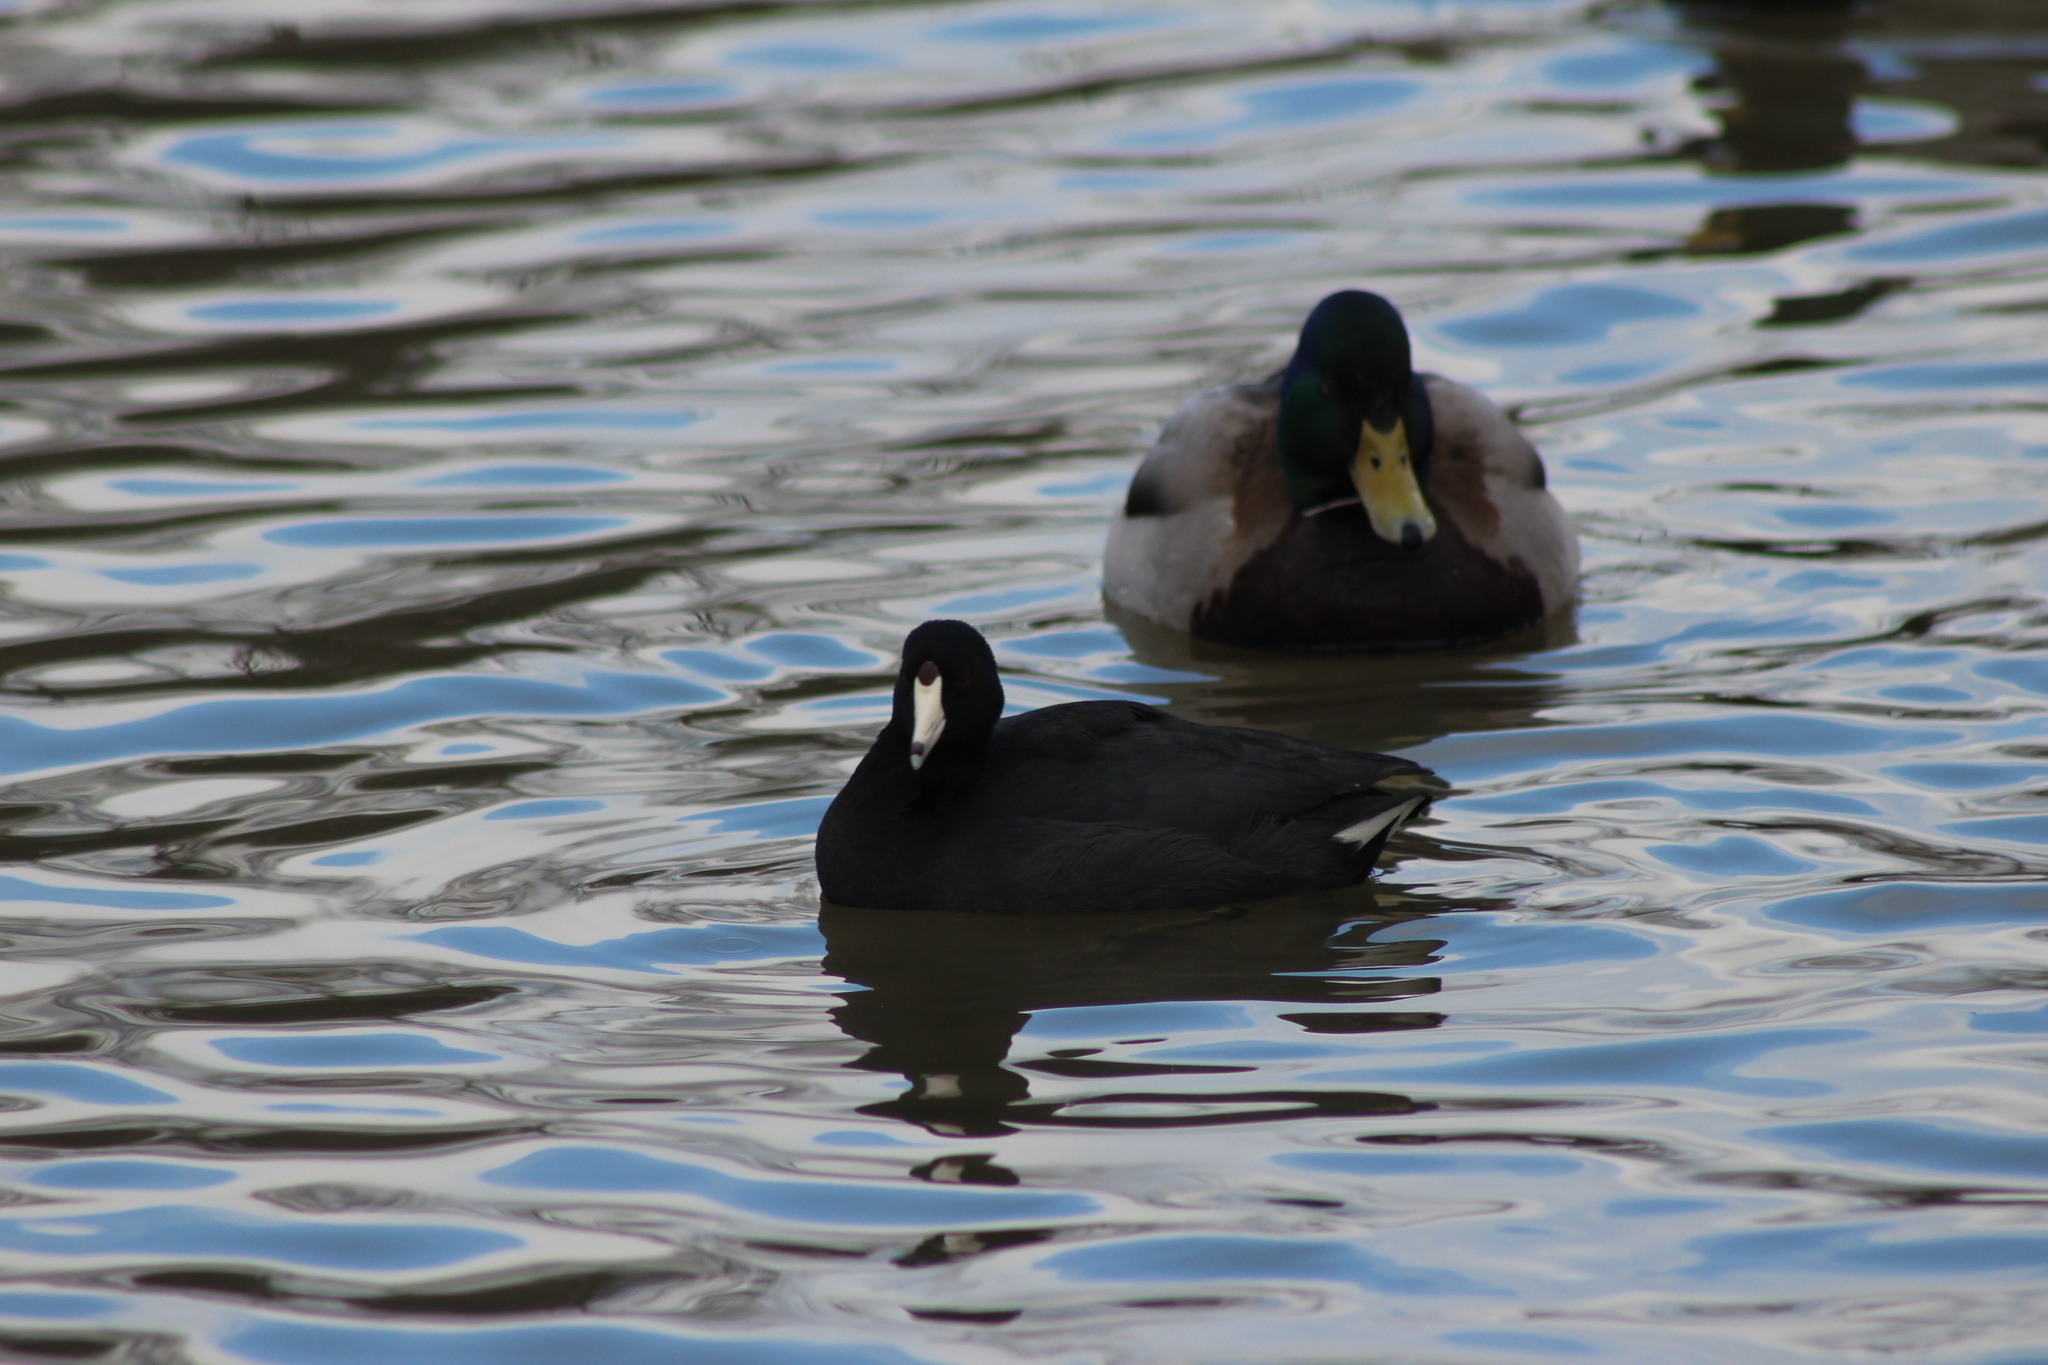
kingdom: Animalia
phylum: Chordata
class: Aves
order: Gruiformes
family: Rallidae
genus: Fulica
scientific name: Fulica americana
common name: American coot
